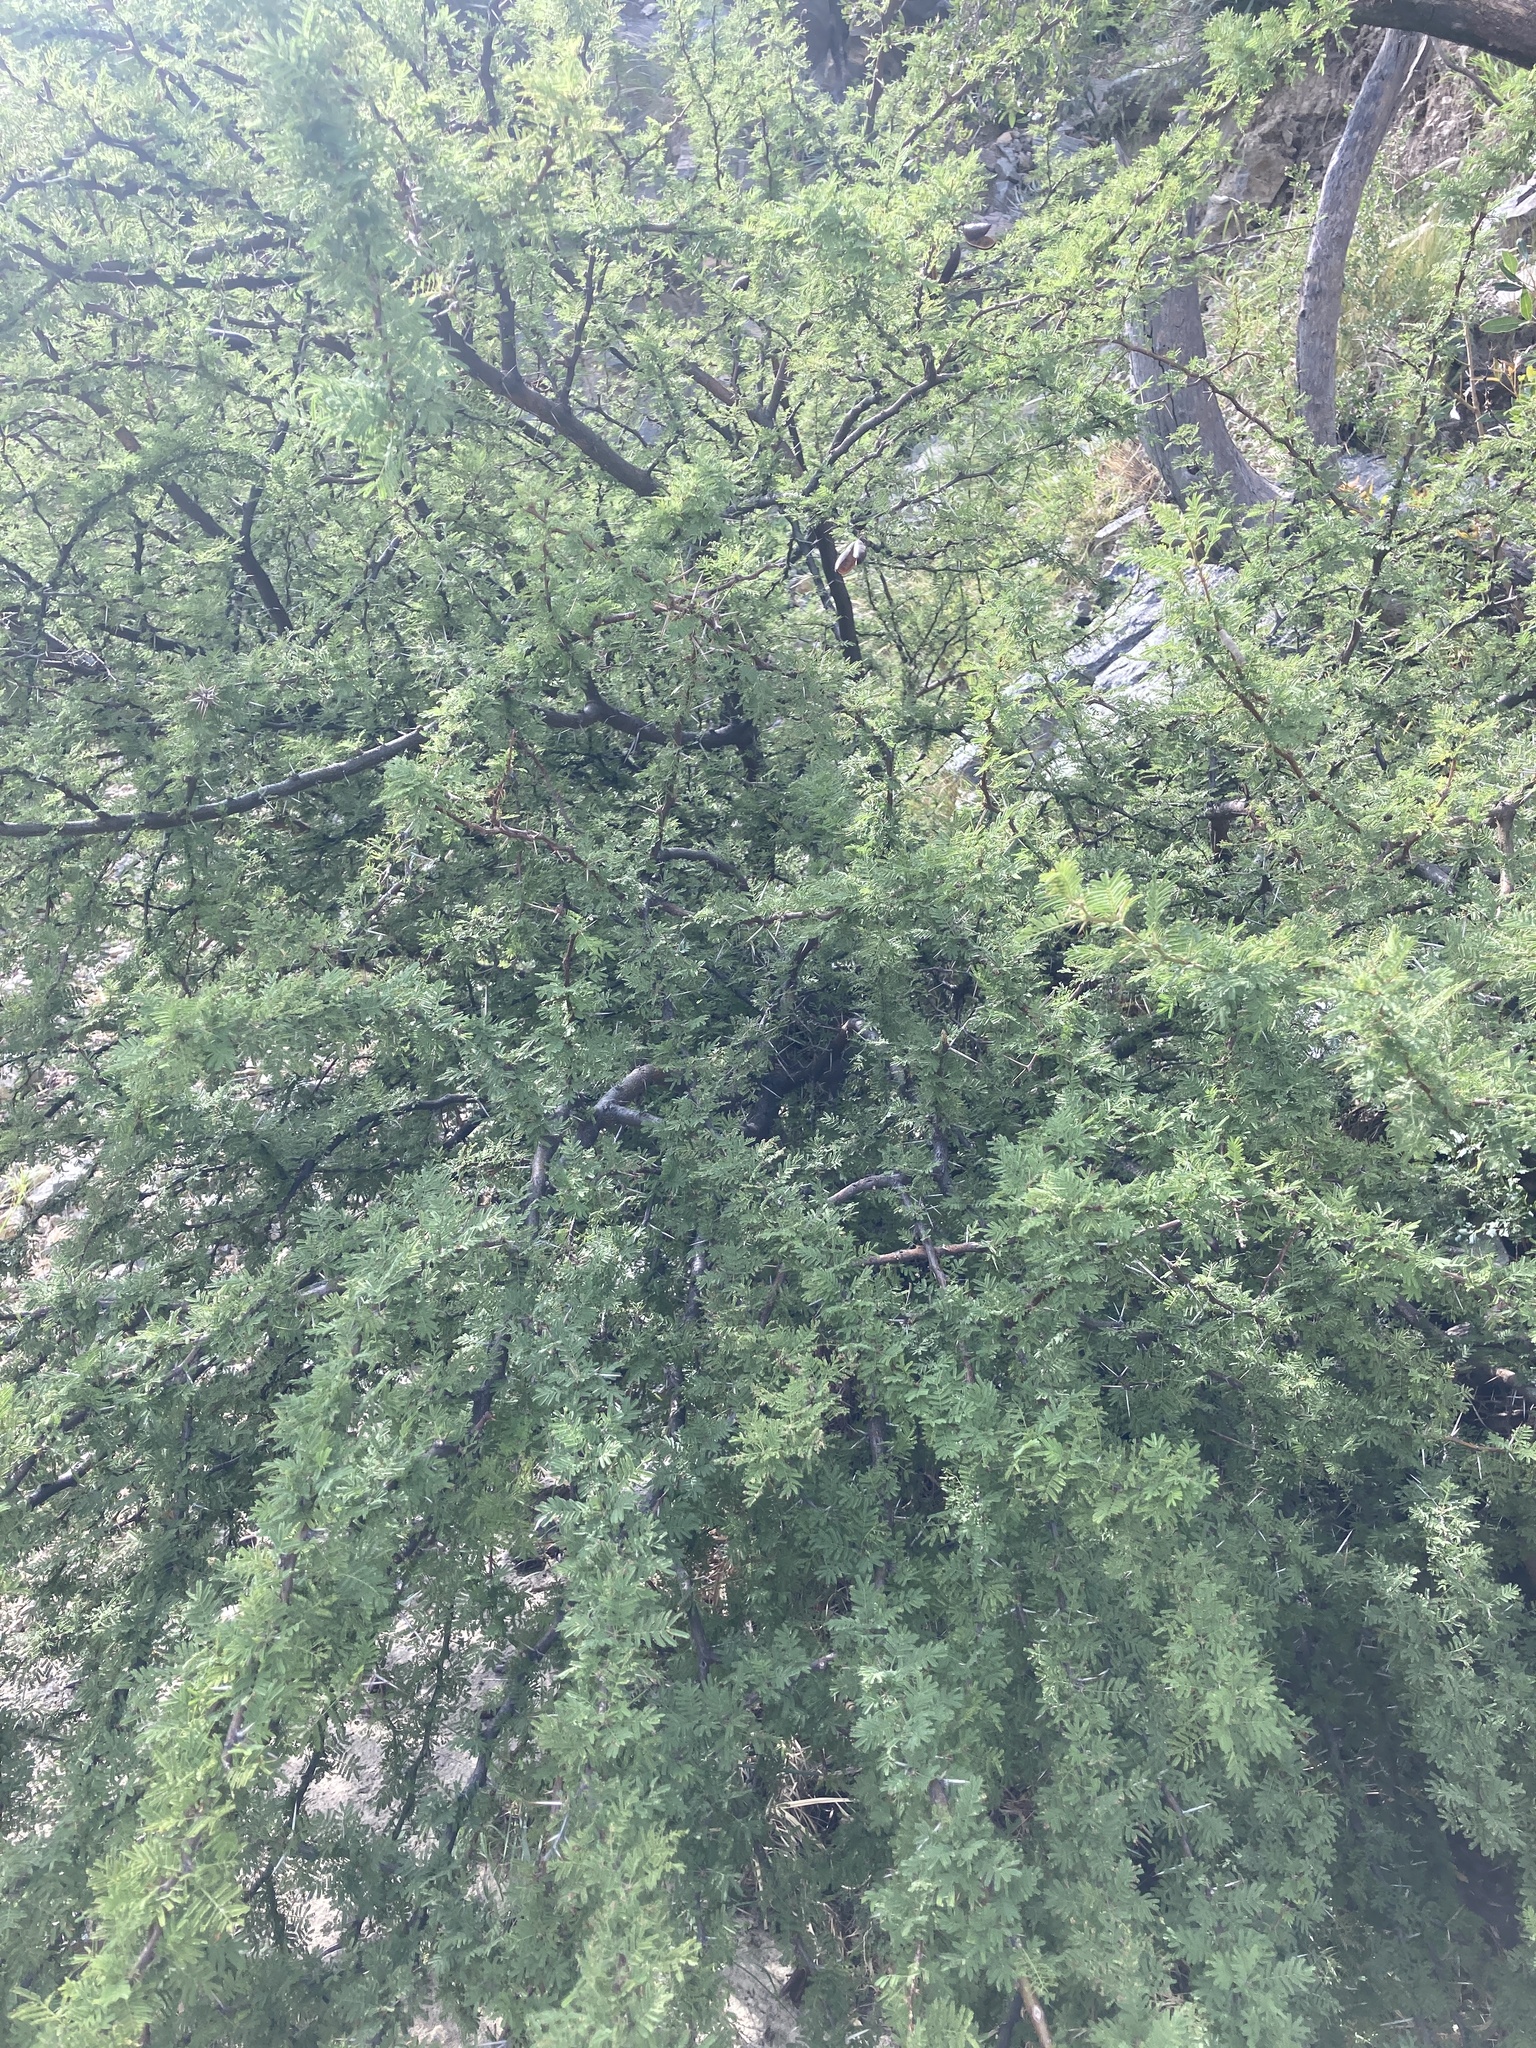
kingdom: Plantae
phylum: Tracheophyta
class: Magnoliopsida
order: Fabales
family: Fabaceae
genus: Vachellia
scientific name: Vachellia caven
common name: Roman cassie
